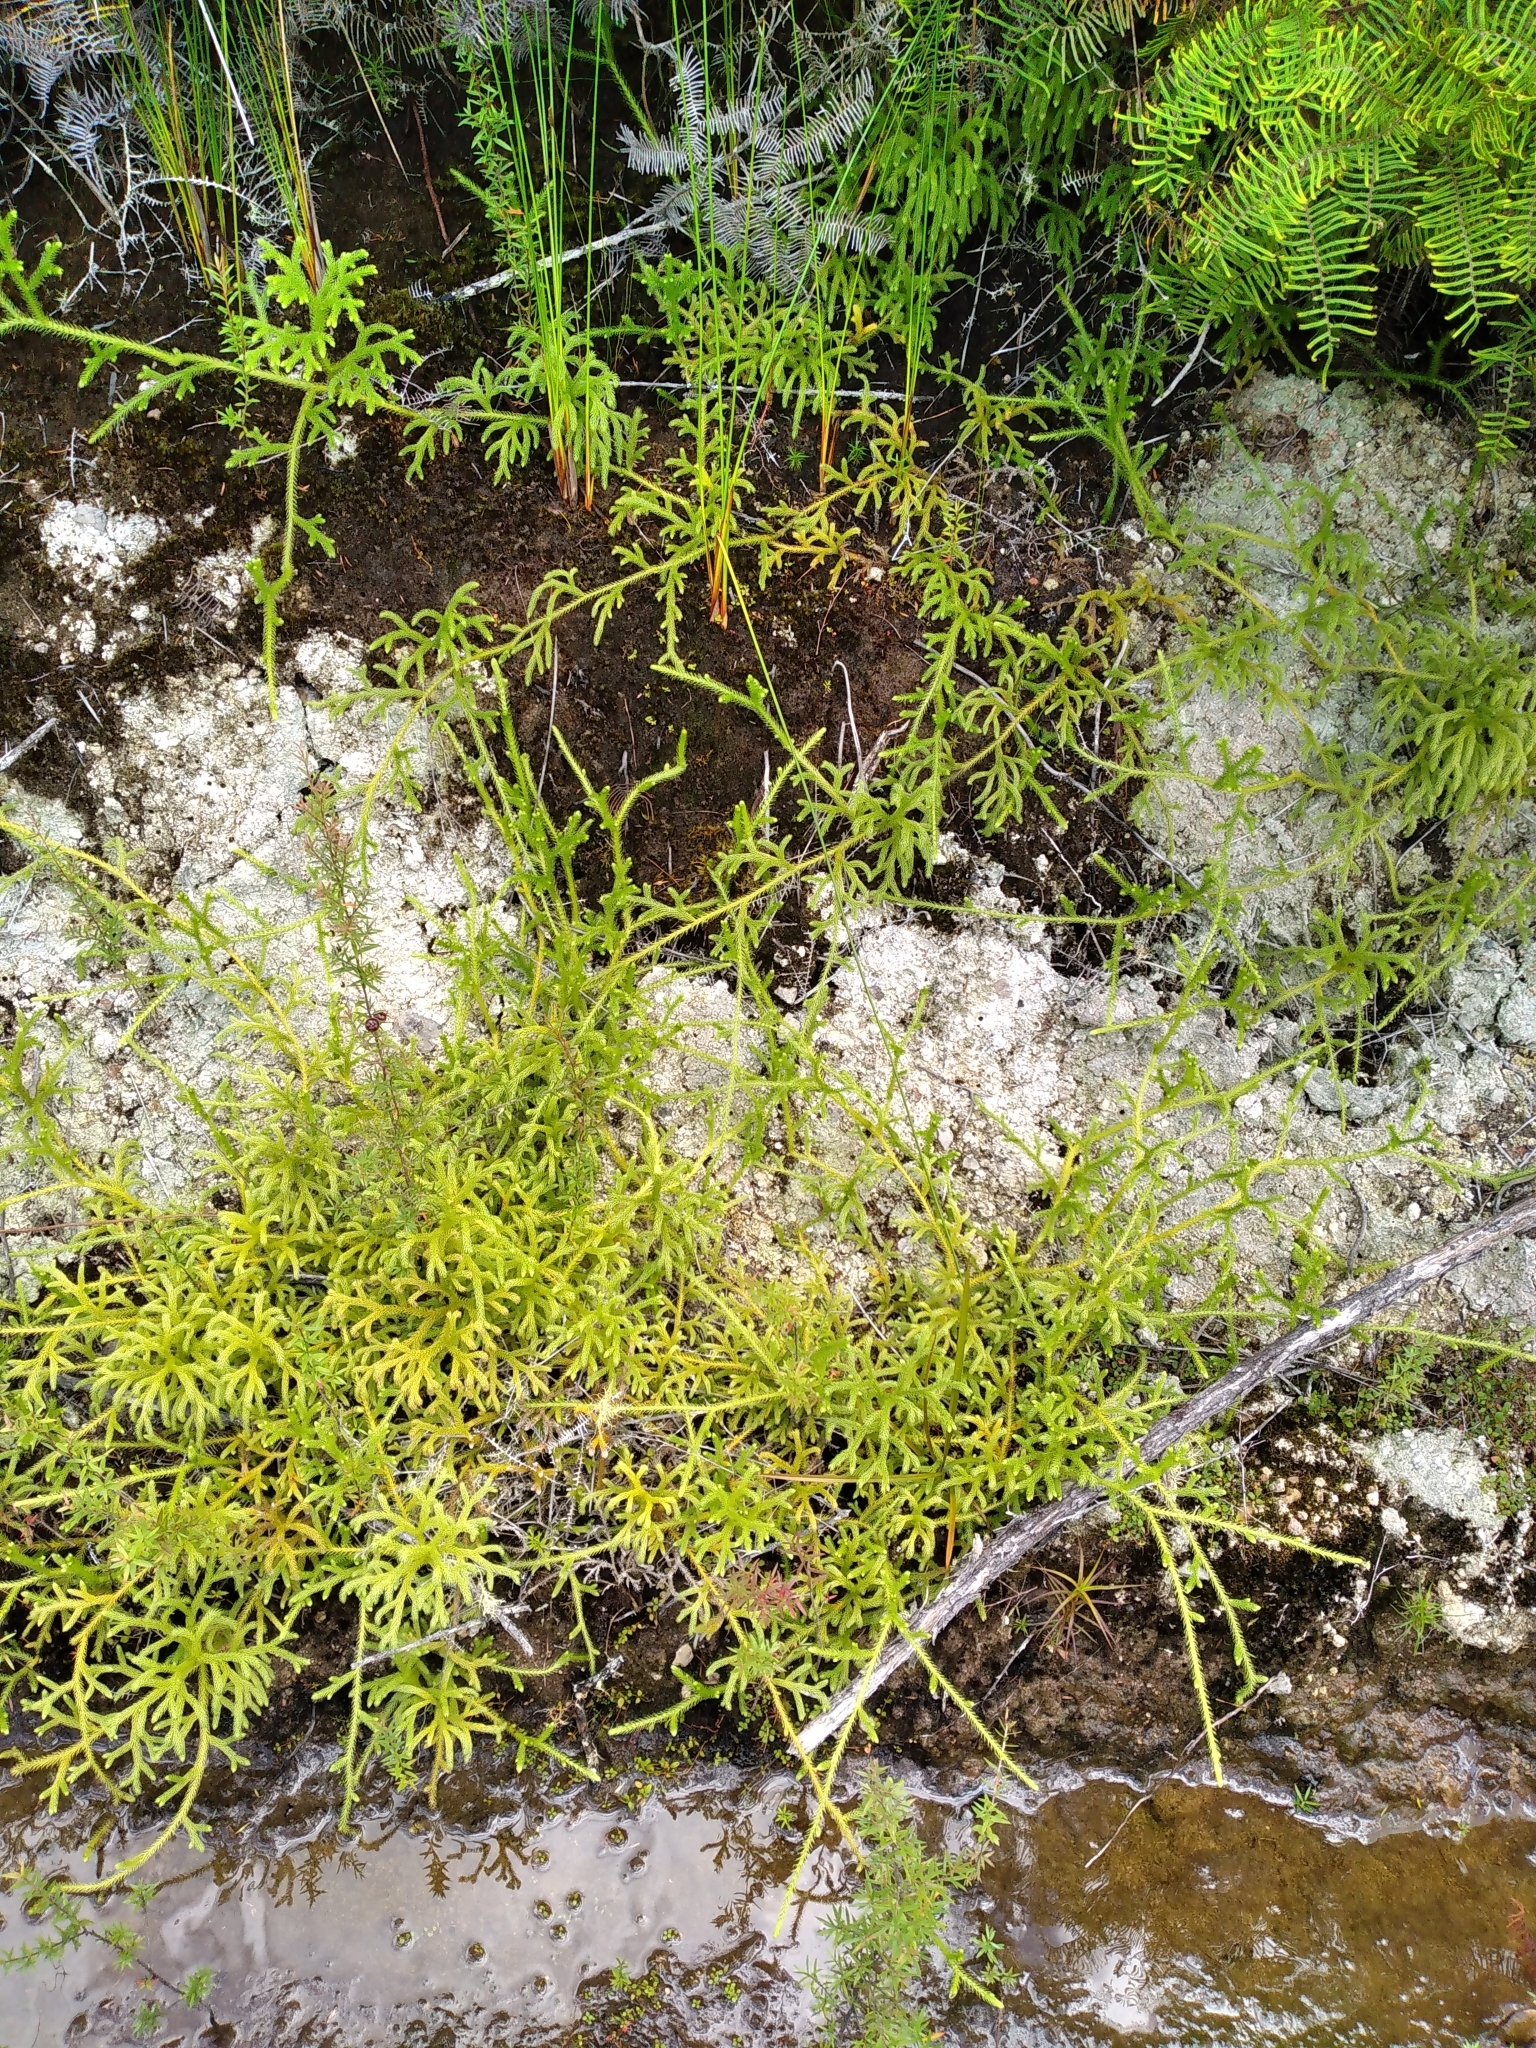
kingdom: Plantae
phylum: Tracheophyta
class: Lycopodiopsida
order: Lycopodiales
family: Lycopodiaceae
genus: Palhinhaea
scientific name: Palhinhaea cernua
